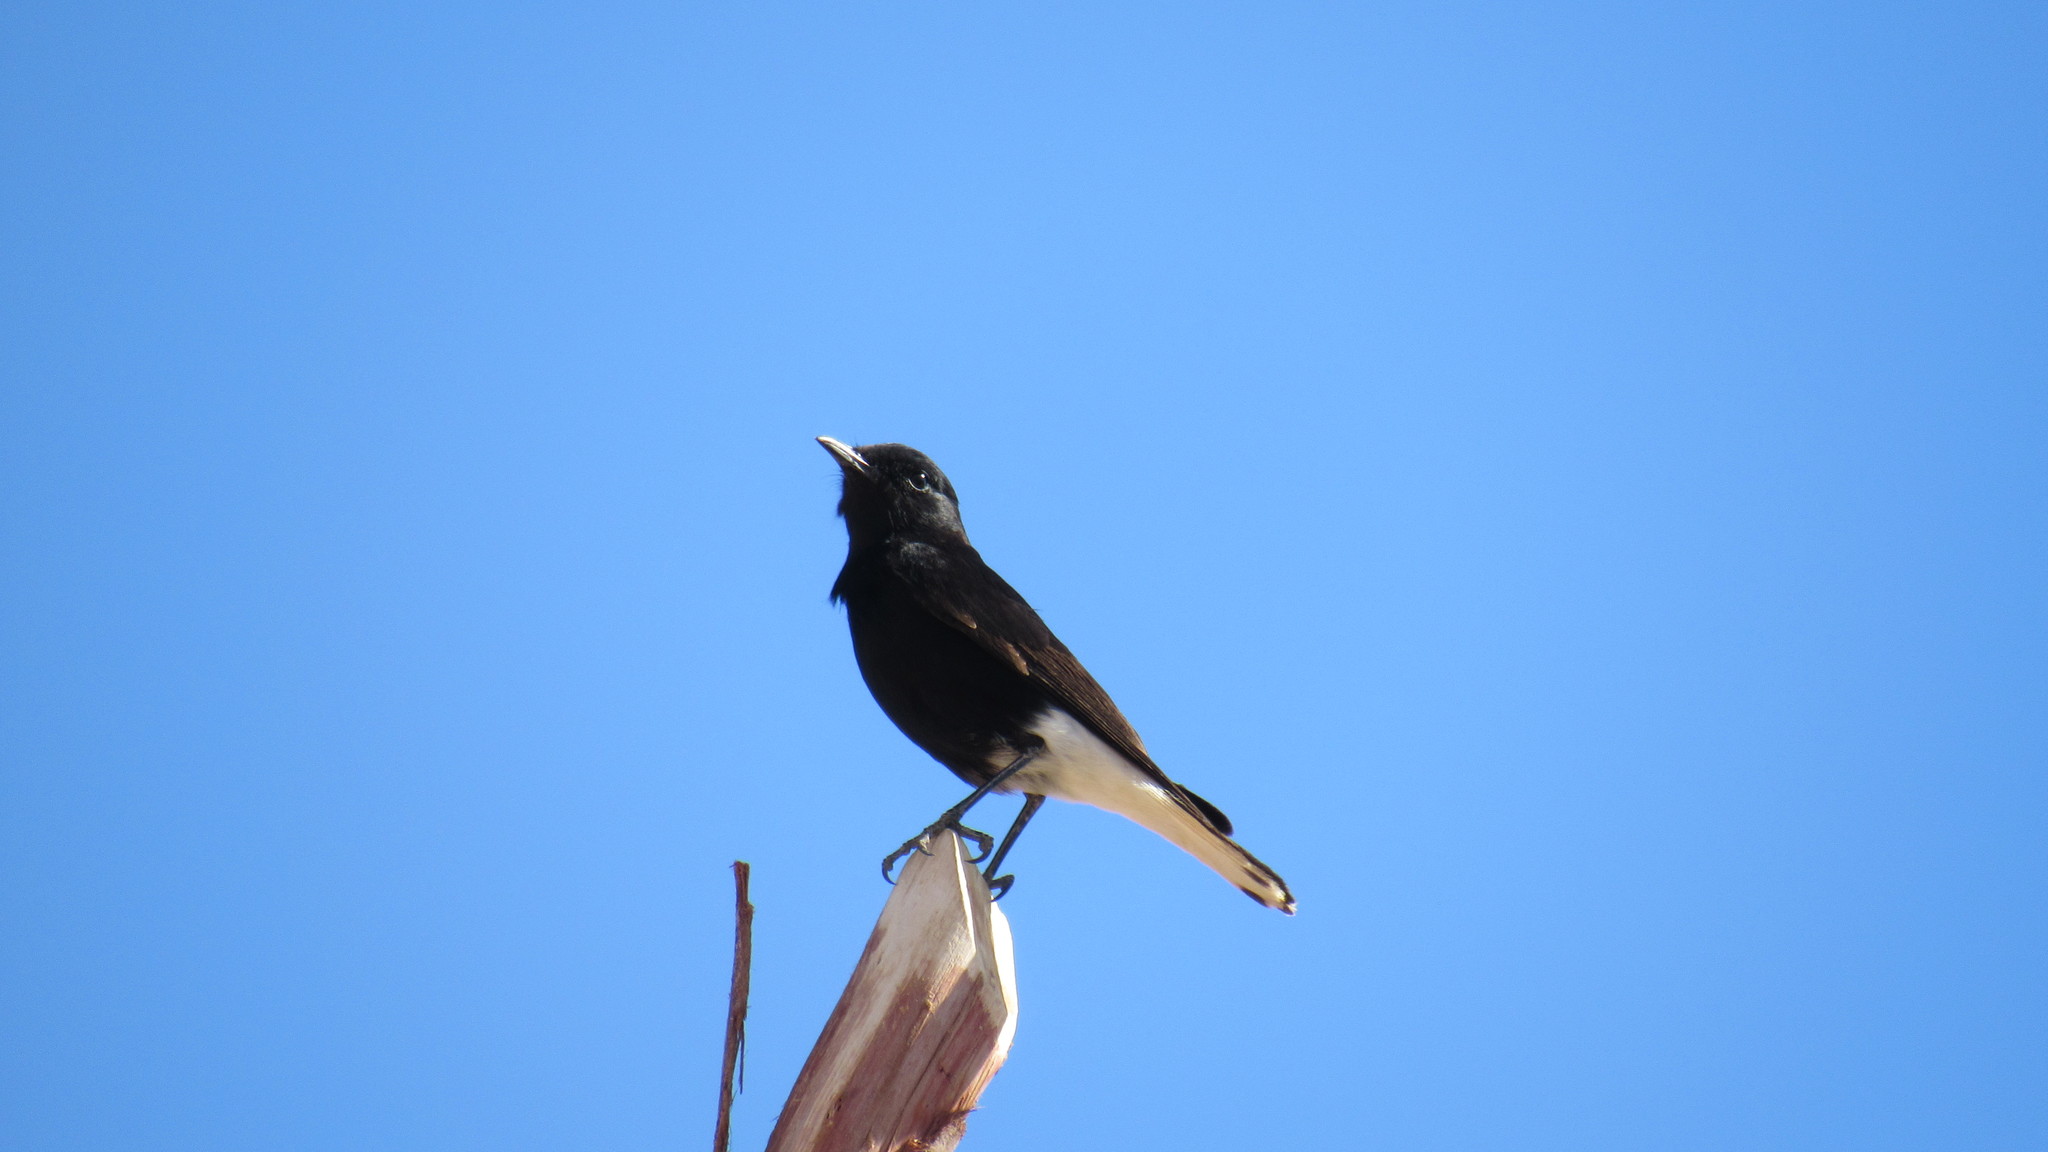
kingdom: Animalia
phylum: Chordata
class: Aves
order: Passeriformes
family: Muscicapidae
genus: Oenanthe
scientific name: Oenanthe leucopyga
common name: White-crowned wheatear
